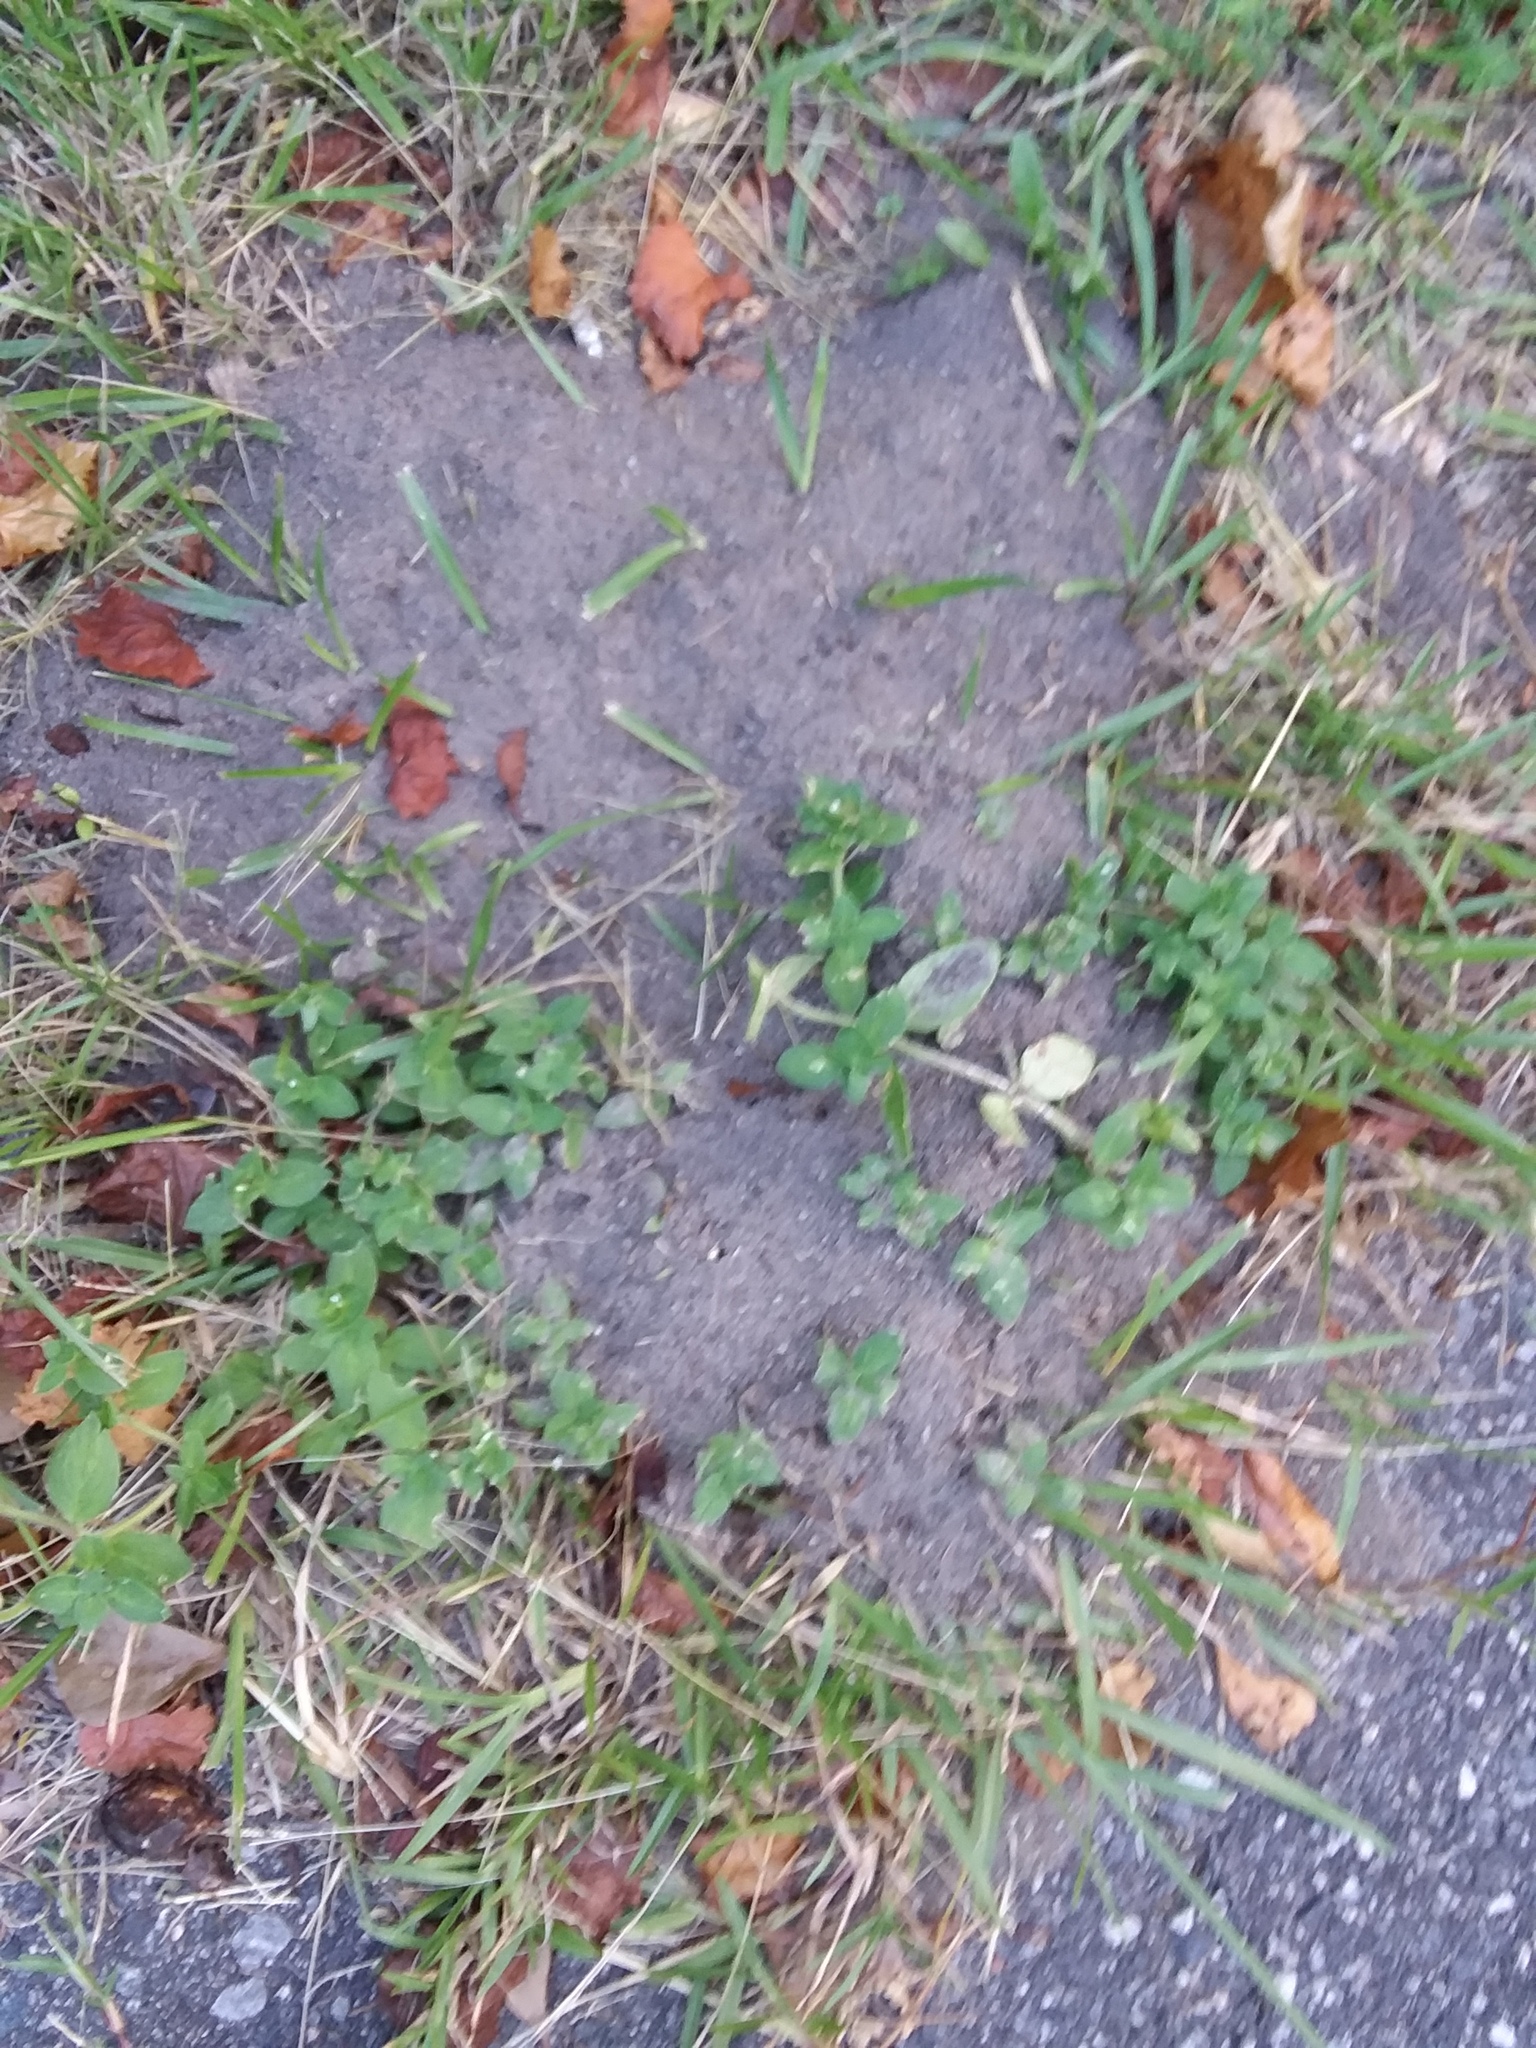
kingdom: Animalia
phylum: Arthropoda
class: Insecta
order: Hymenoptera
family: Formicidae
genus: Solenopsis
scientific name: Solenopsis invicta
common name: Red imported fire ant
